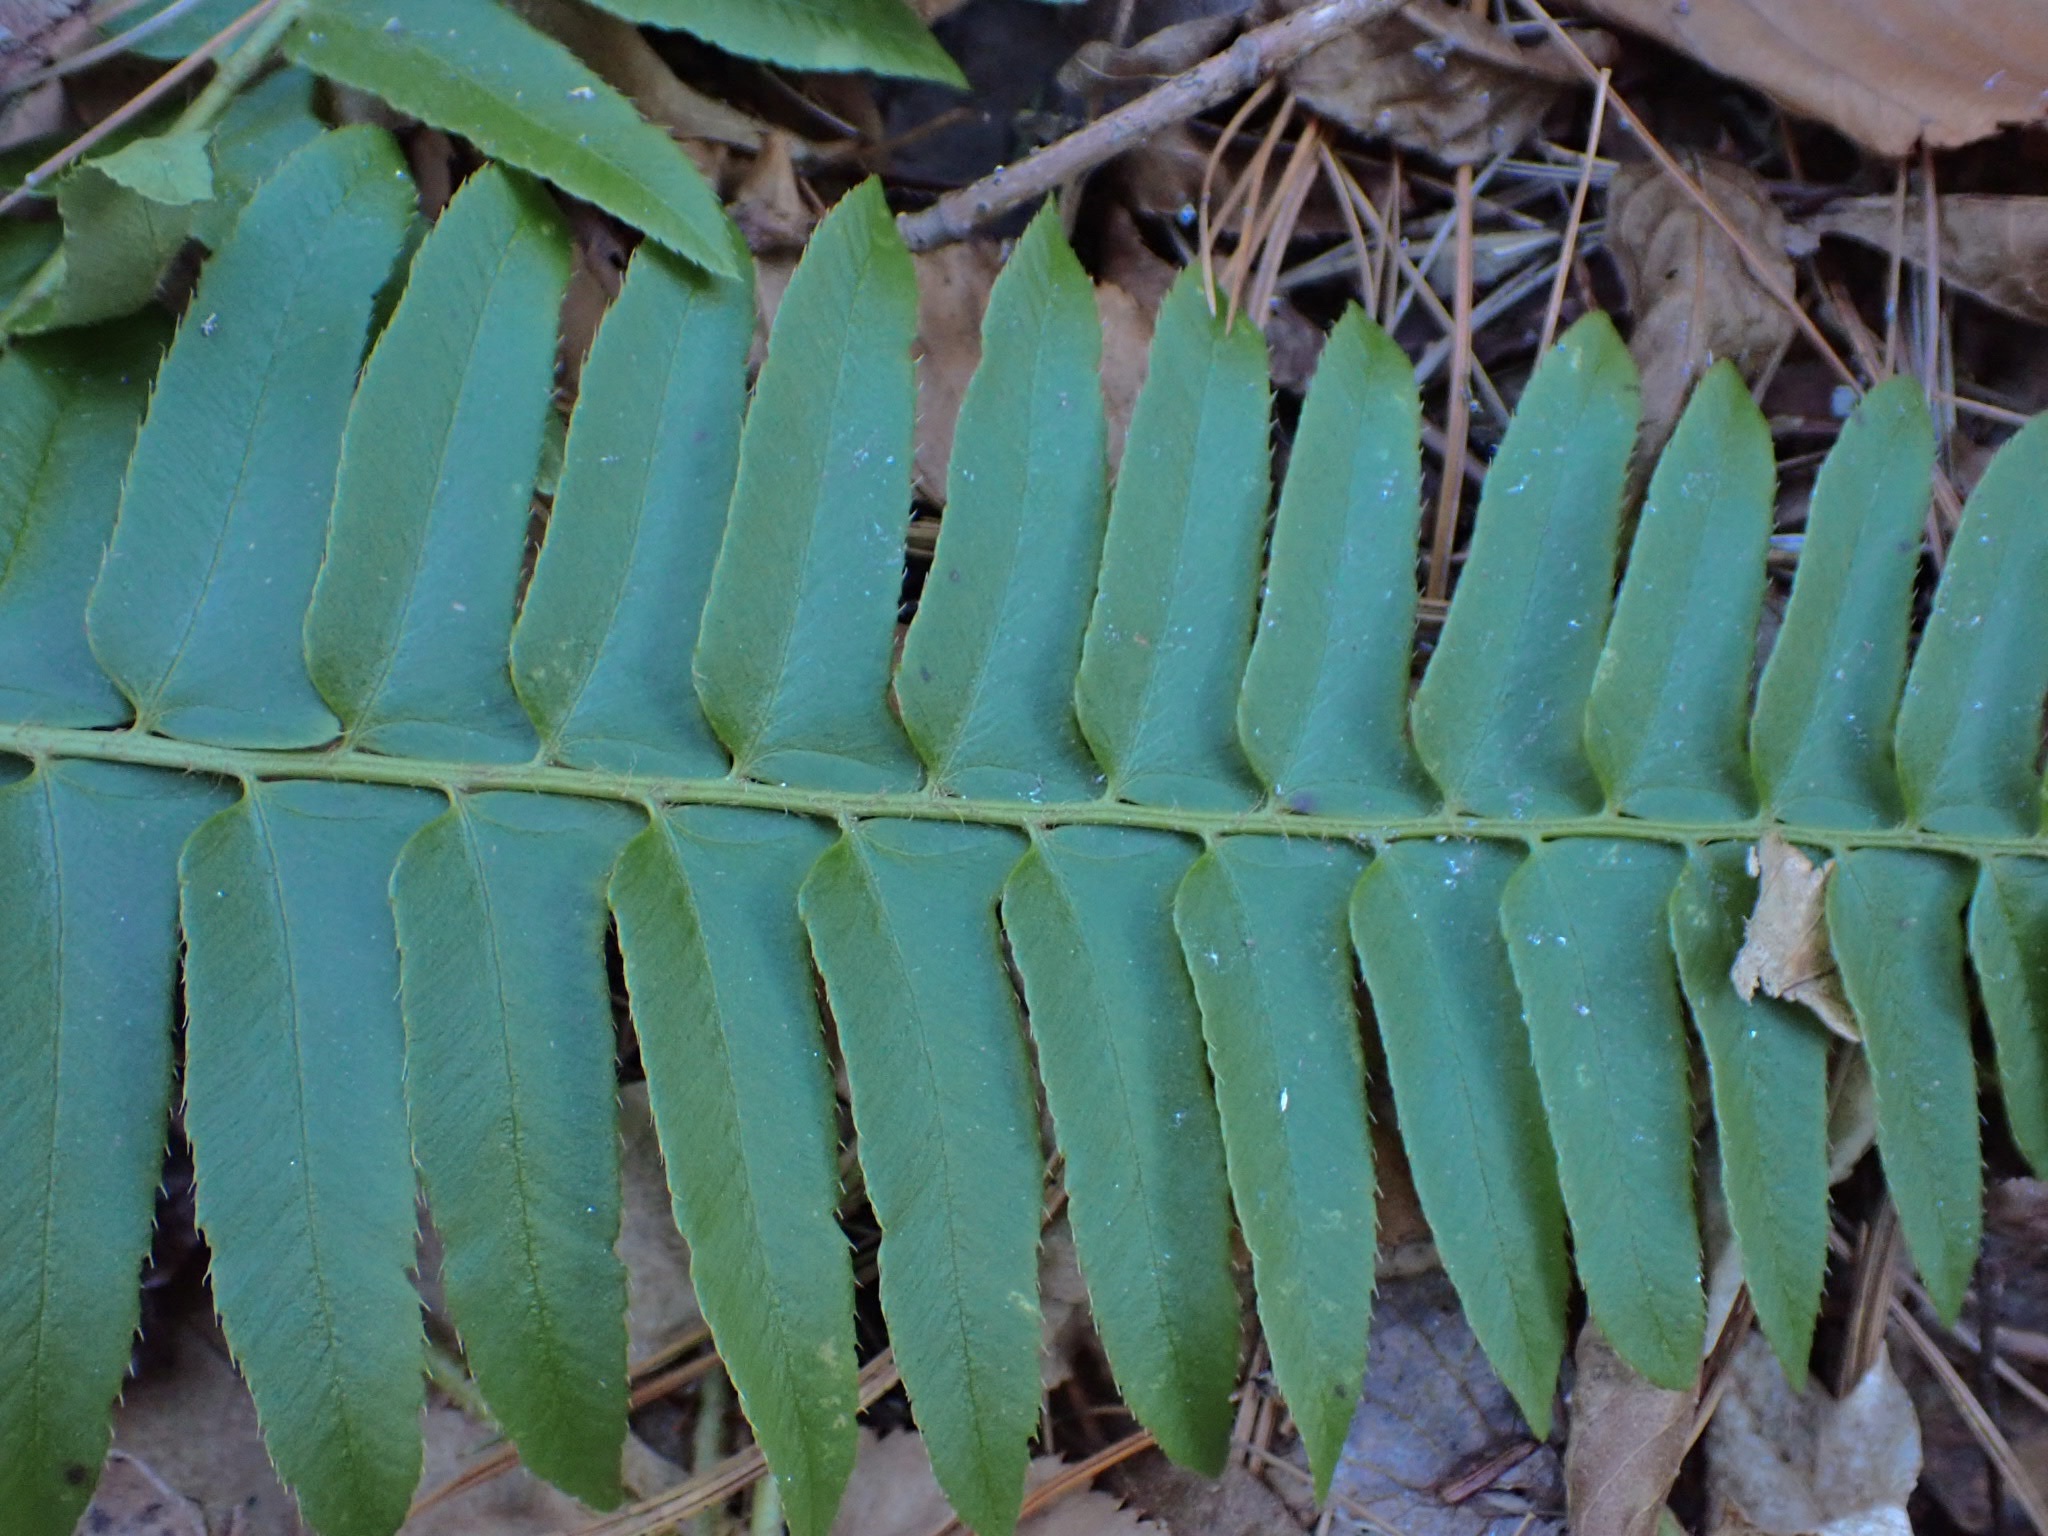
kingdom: Plantae
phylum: Tracheophyta
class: Polypodiopsida
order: Polypodiales
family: Dryopteridaceae
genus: Polystichum
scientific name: Polystichum acrostichoides
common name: Christmas fern
